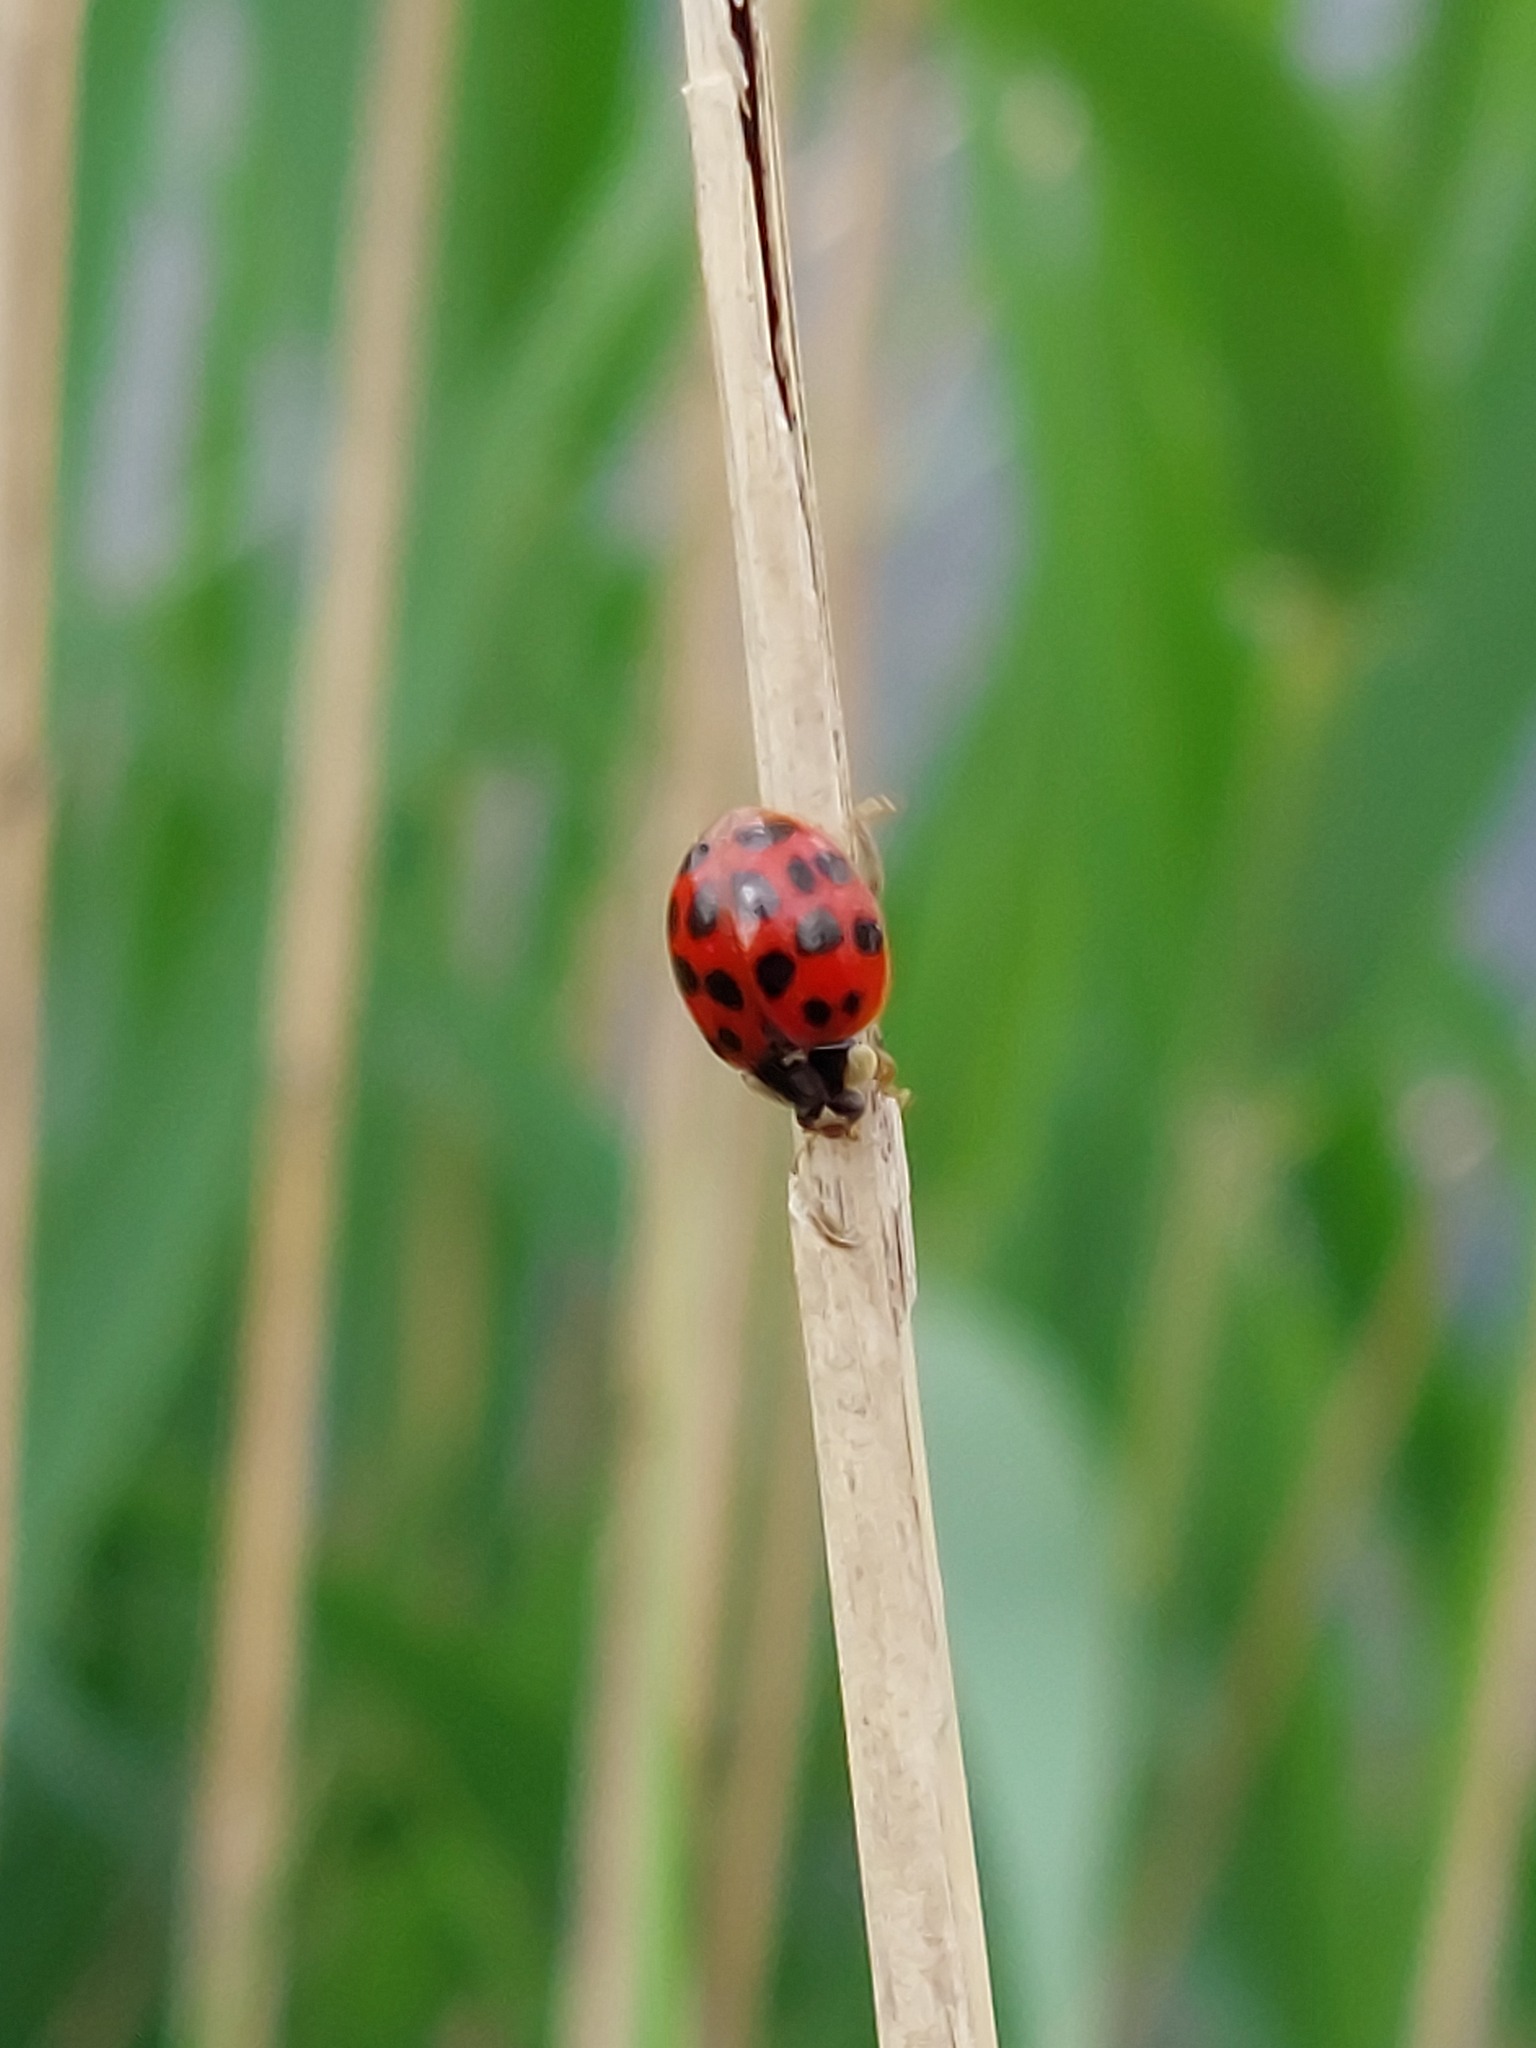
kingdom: Animalia
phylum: Arthropoda
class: Insecta
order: Coleoptera
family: Coccinellidae
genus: Harmonia
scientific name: Harmonia axyridis
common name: Harlequin ladybird
